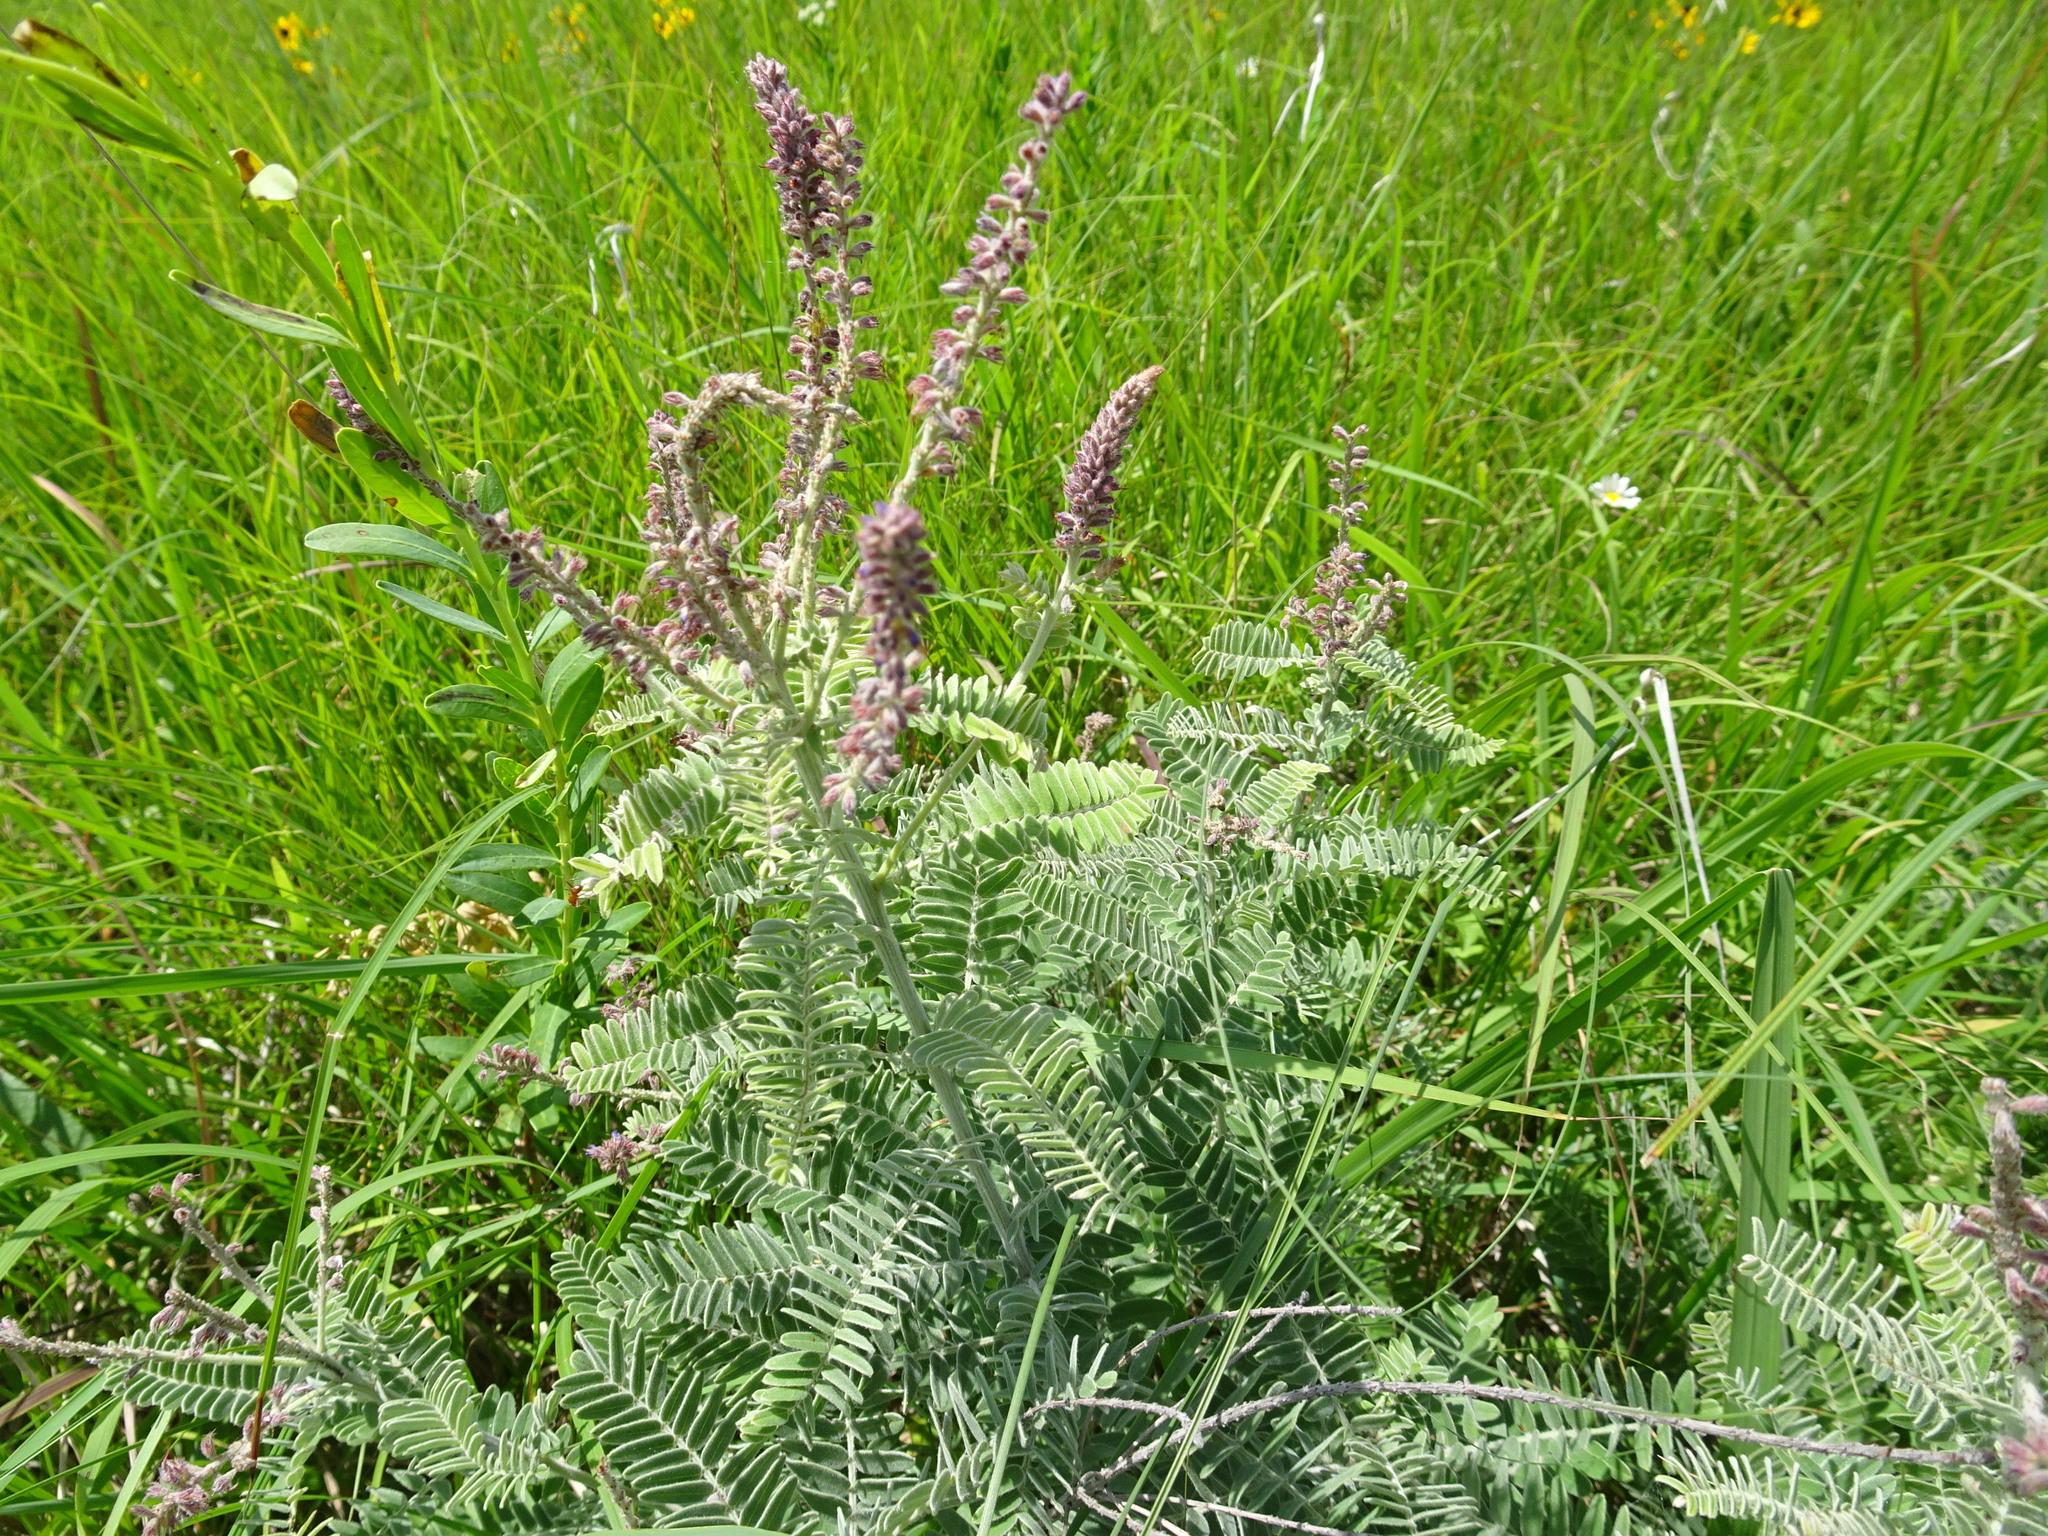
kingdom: Plantae
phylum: Tracheophyta
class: Magnoliopsida
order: Fabales
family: Fabaceae
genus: Amorpha
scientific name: Amorpha canescens
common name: Leadplant
